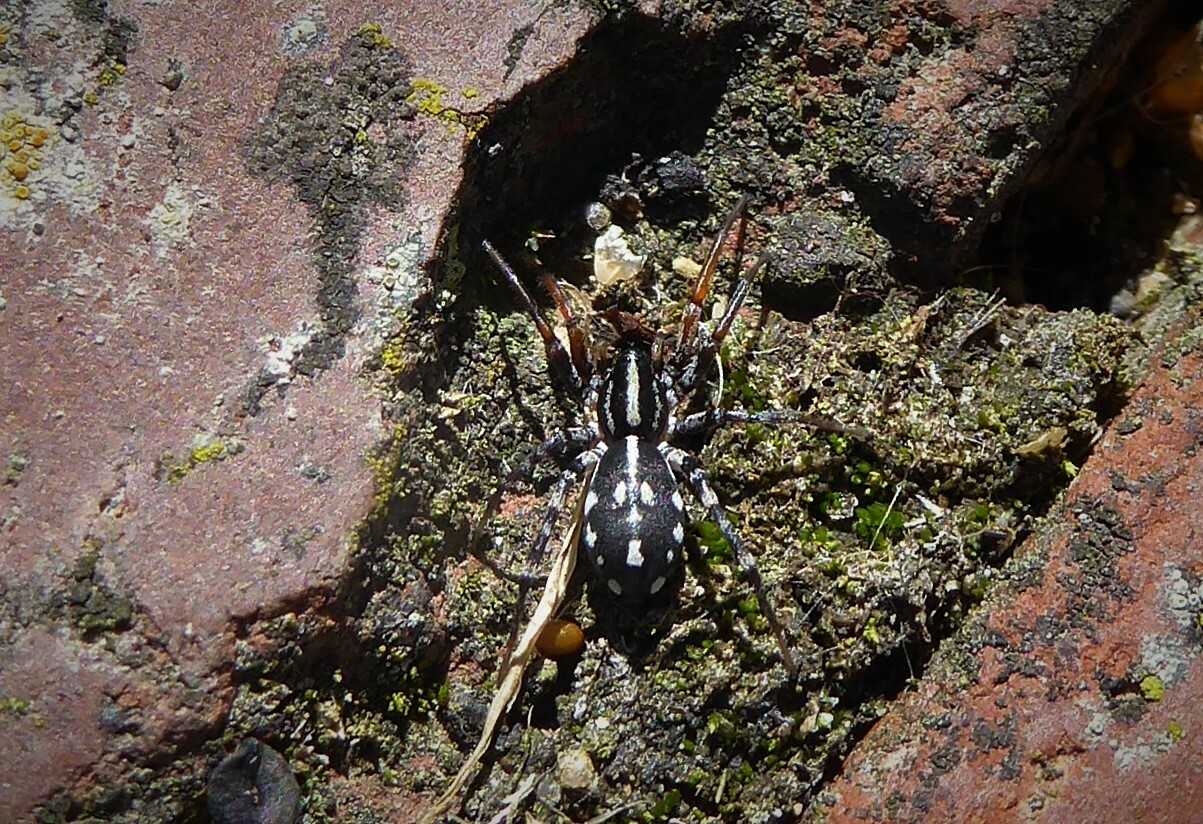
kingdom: Animalia
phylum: Arthropoda
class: Arachnida
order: Araneae
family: Corinnidae
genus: Nyssus
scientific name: Nyssus coloripes
